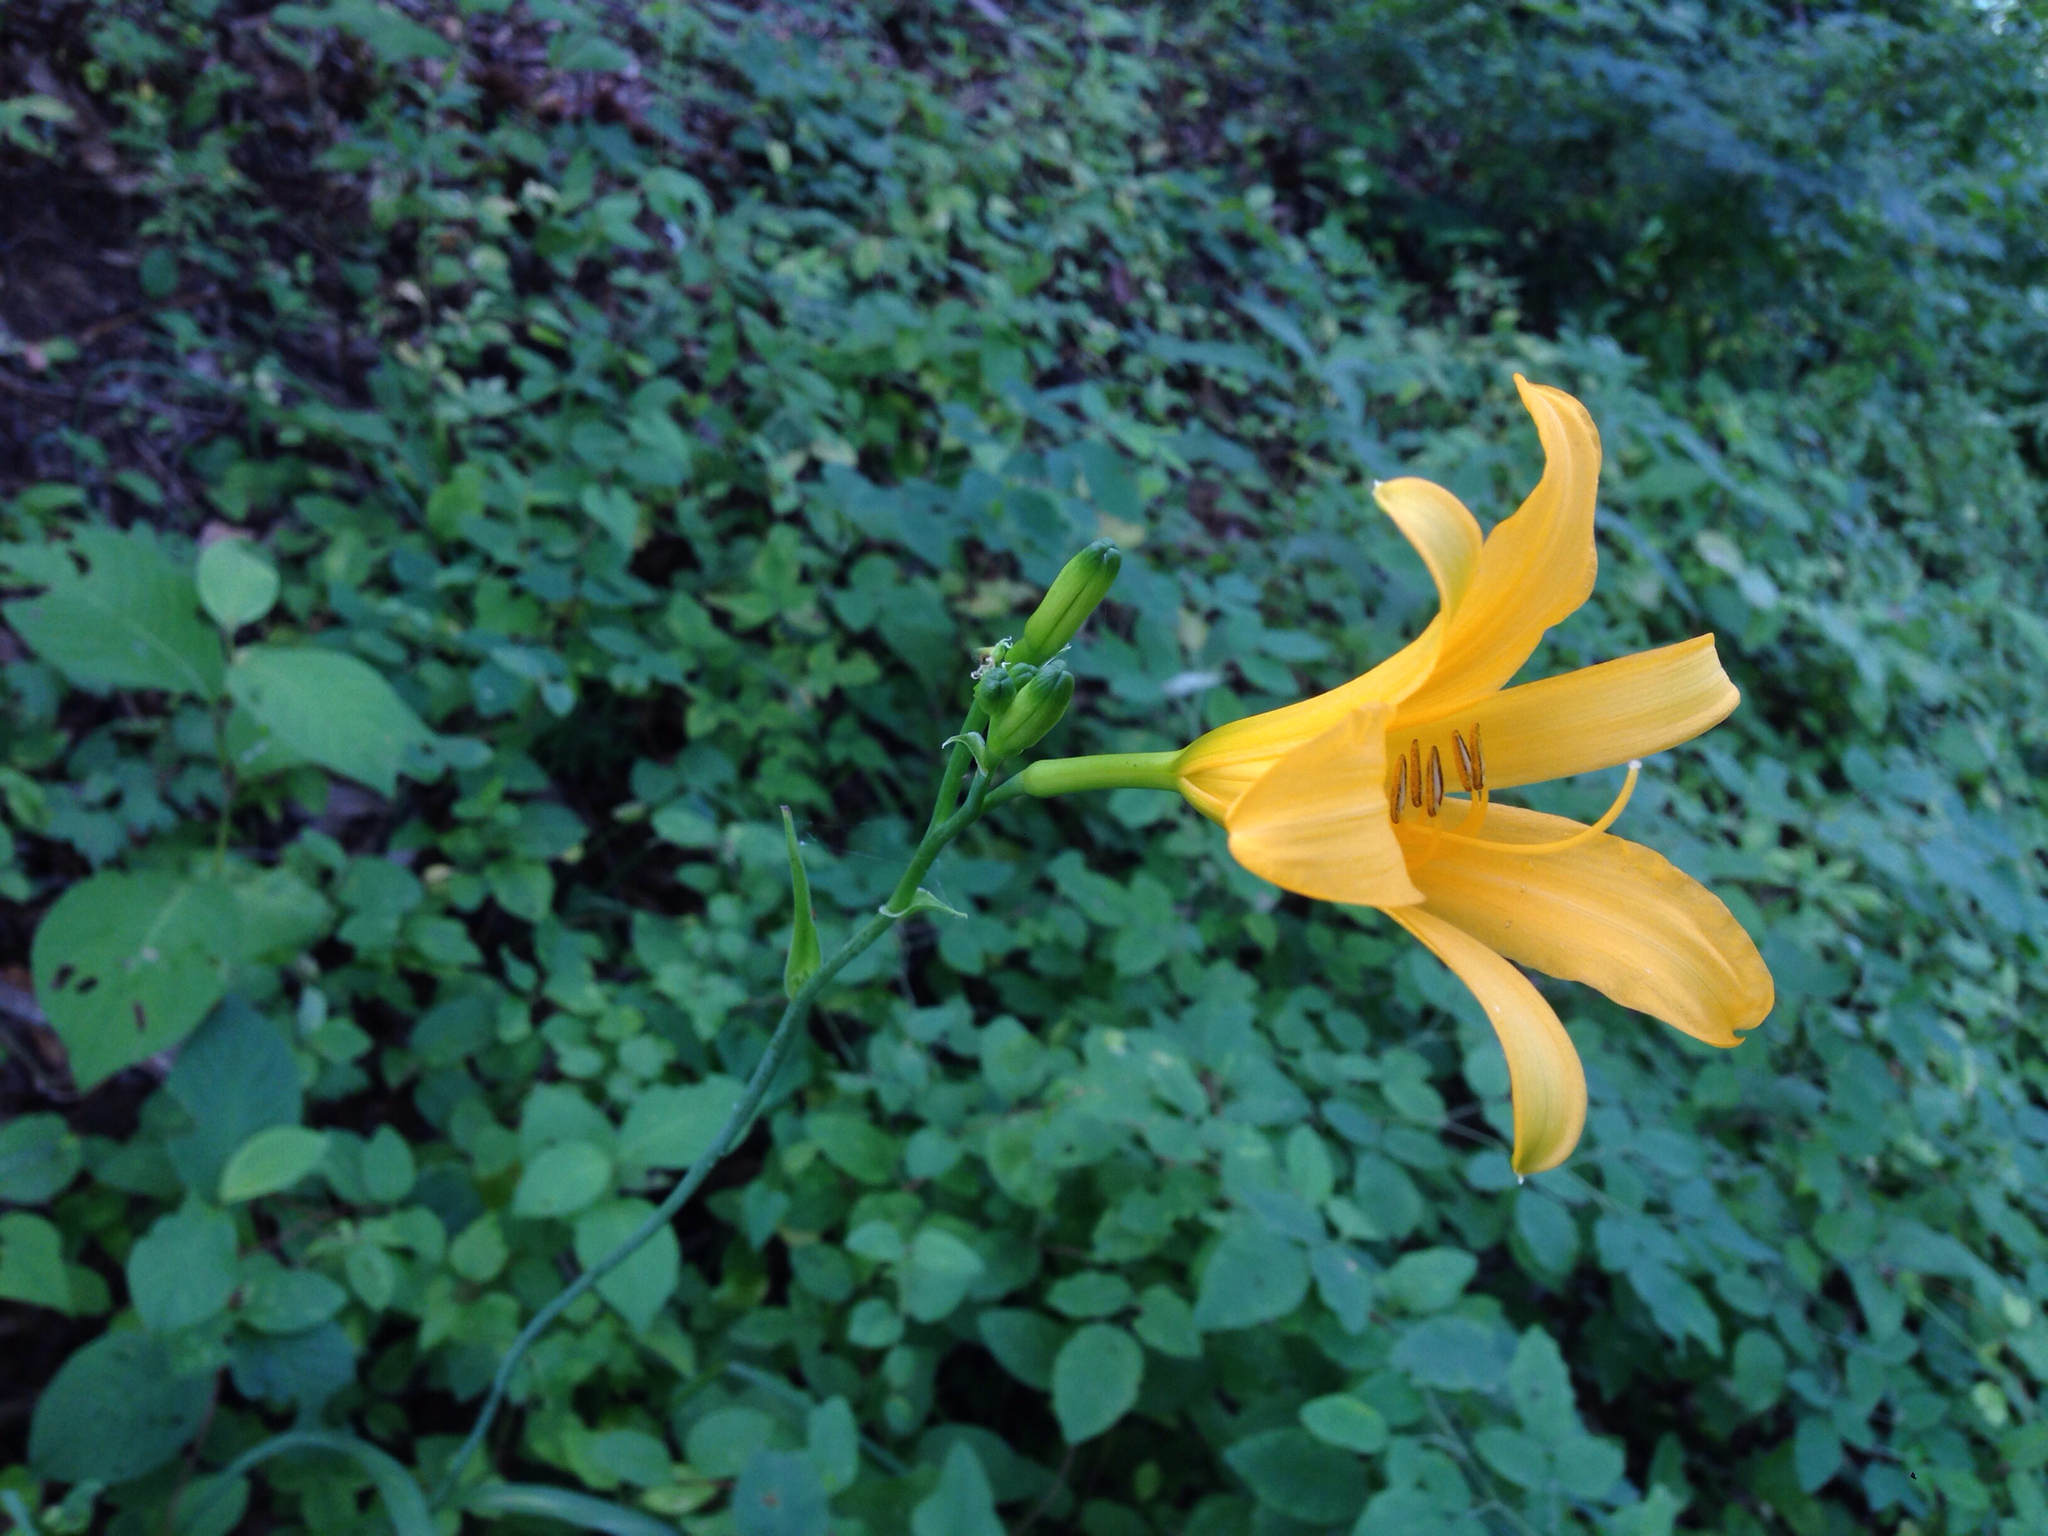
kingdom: Plantae
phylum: Tracheophyta
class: Liliopsida
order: Asparagales
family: Asphodelaceae
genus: Hemerocallis
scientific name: Hemerocallis hakuunensis
